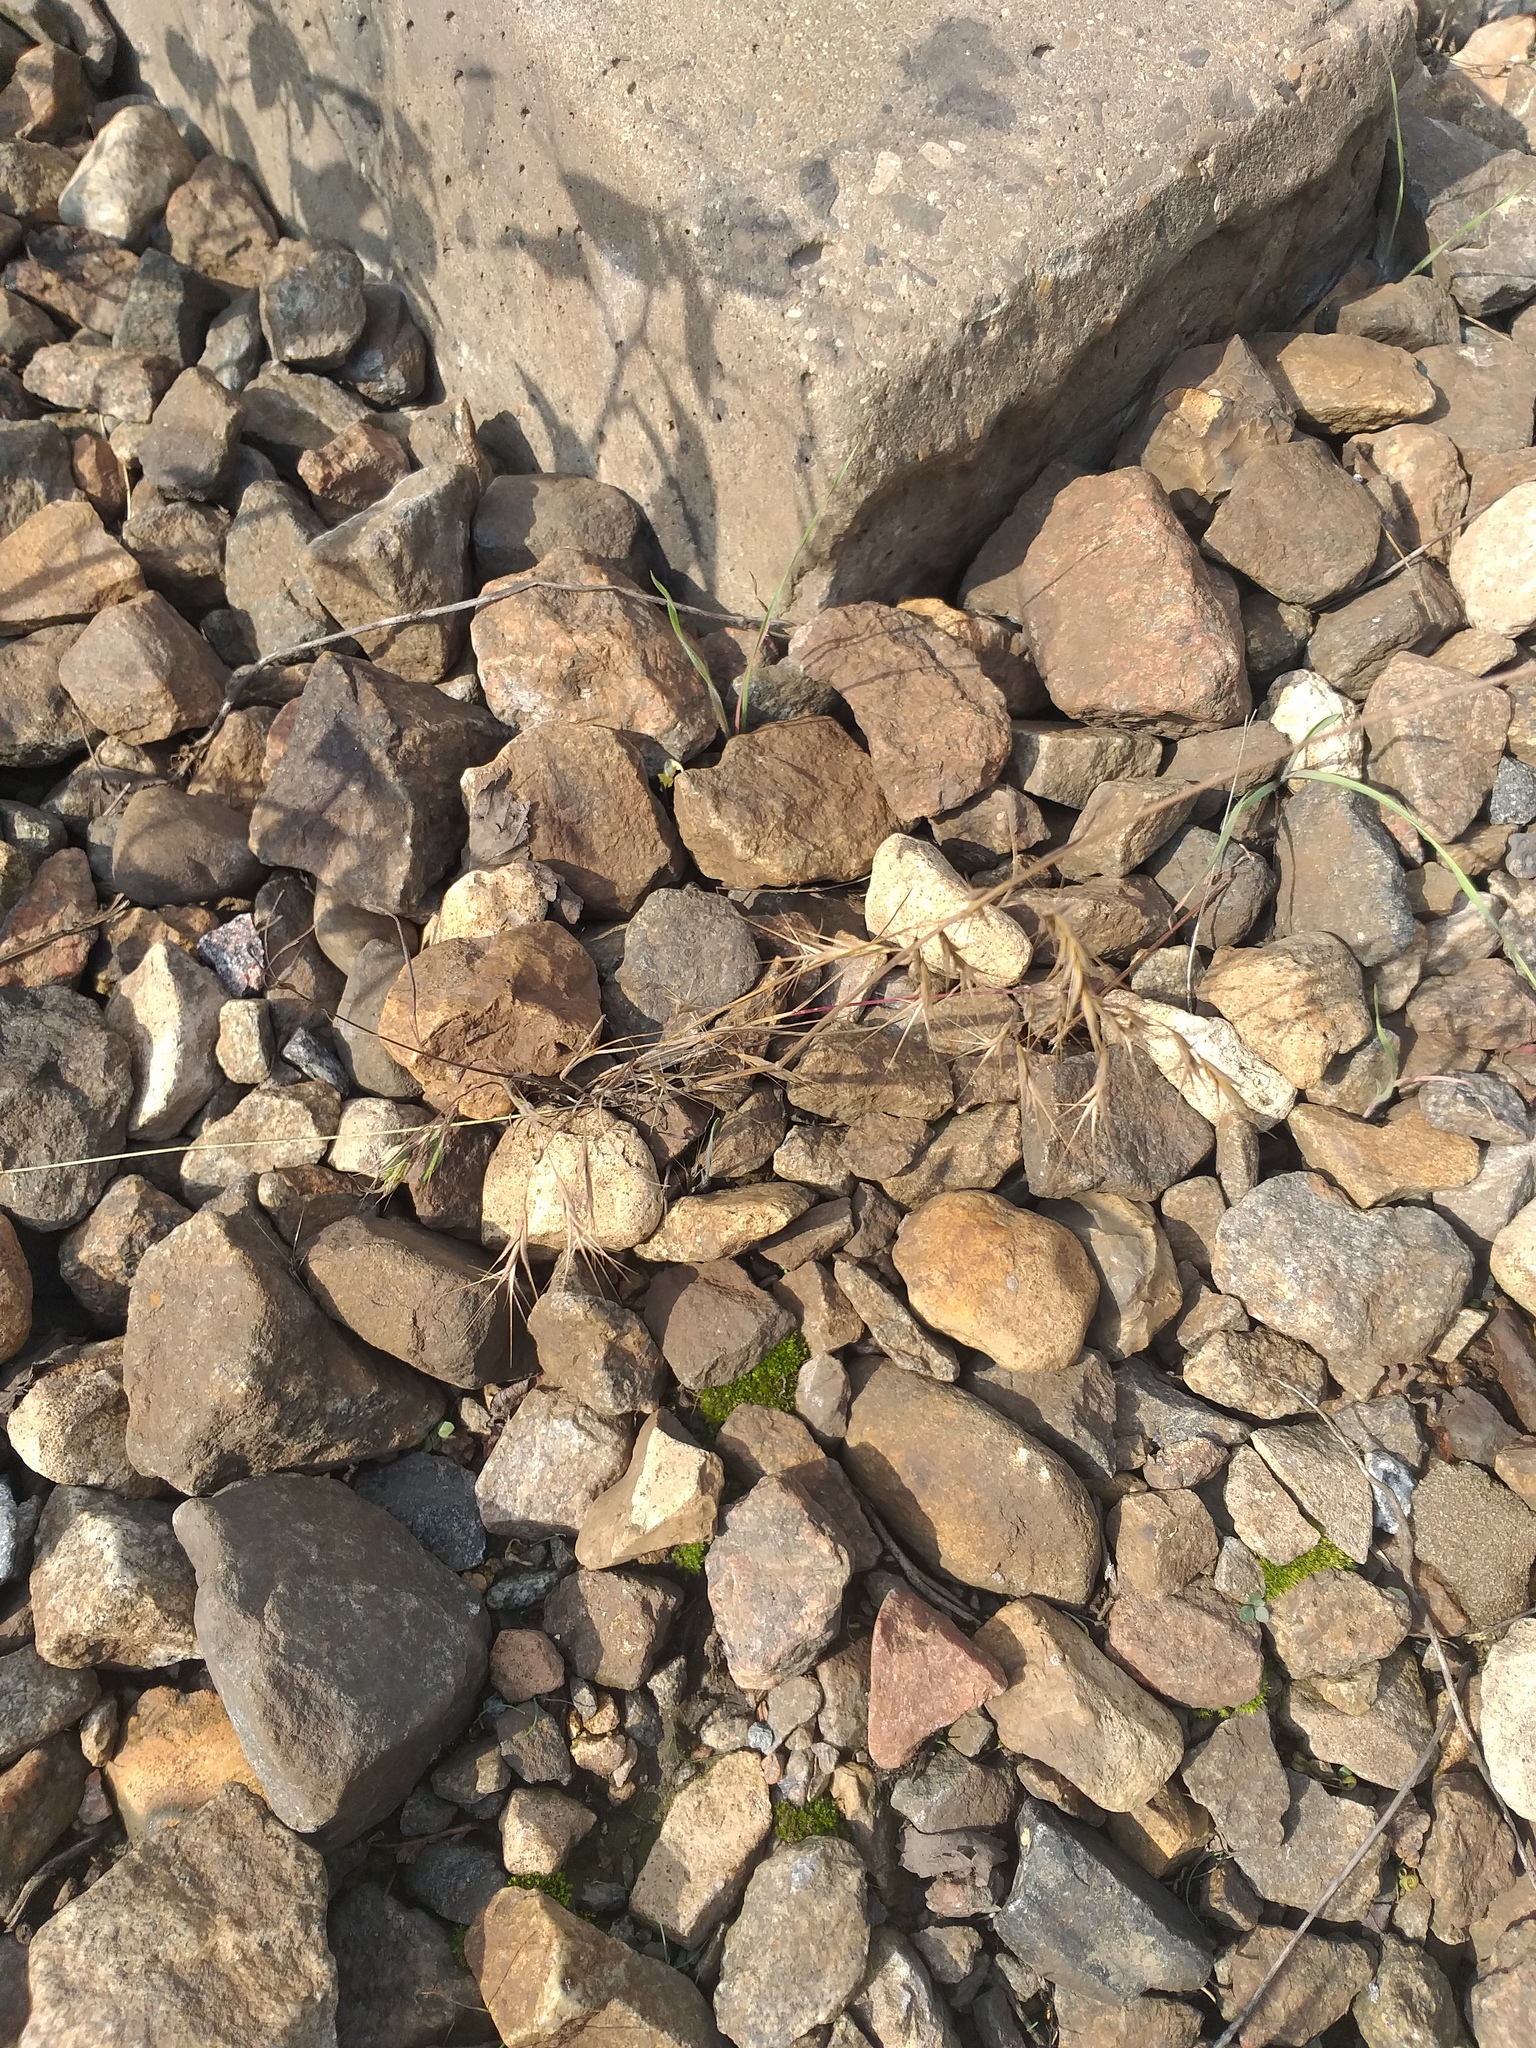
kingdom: Plantae
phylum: Tracheophyta
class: Liliopsida
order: Poales
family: Poaceae
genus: Bromus
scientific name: Bromus tectorum
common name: Cheatgrass
